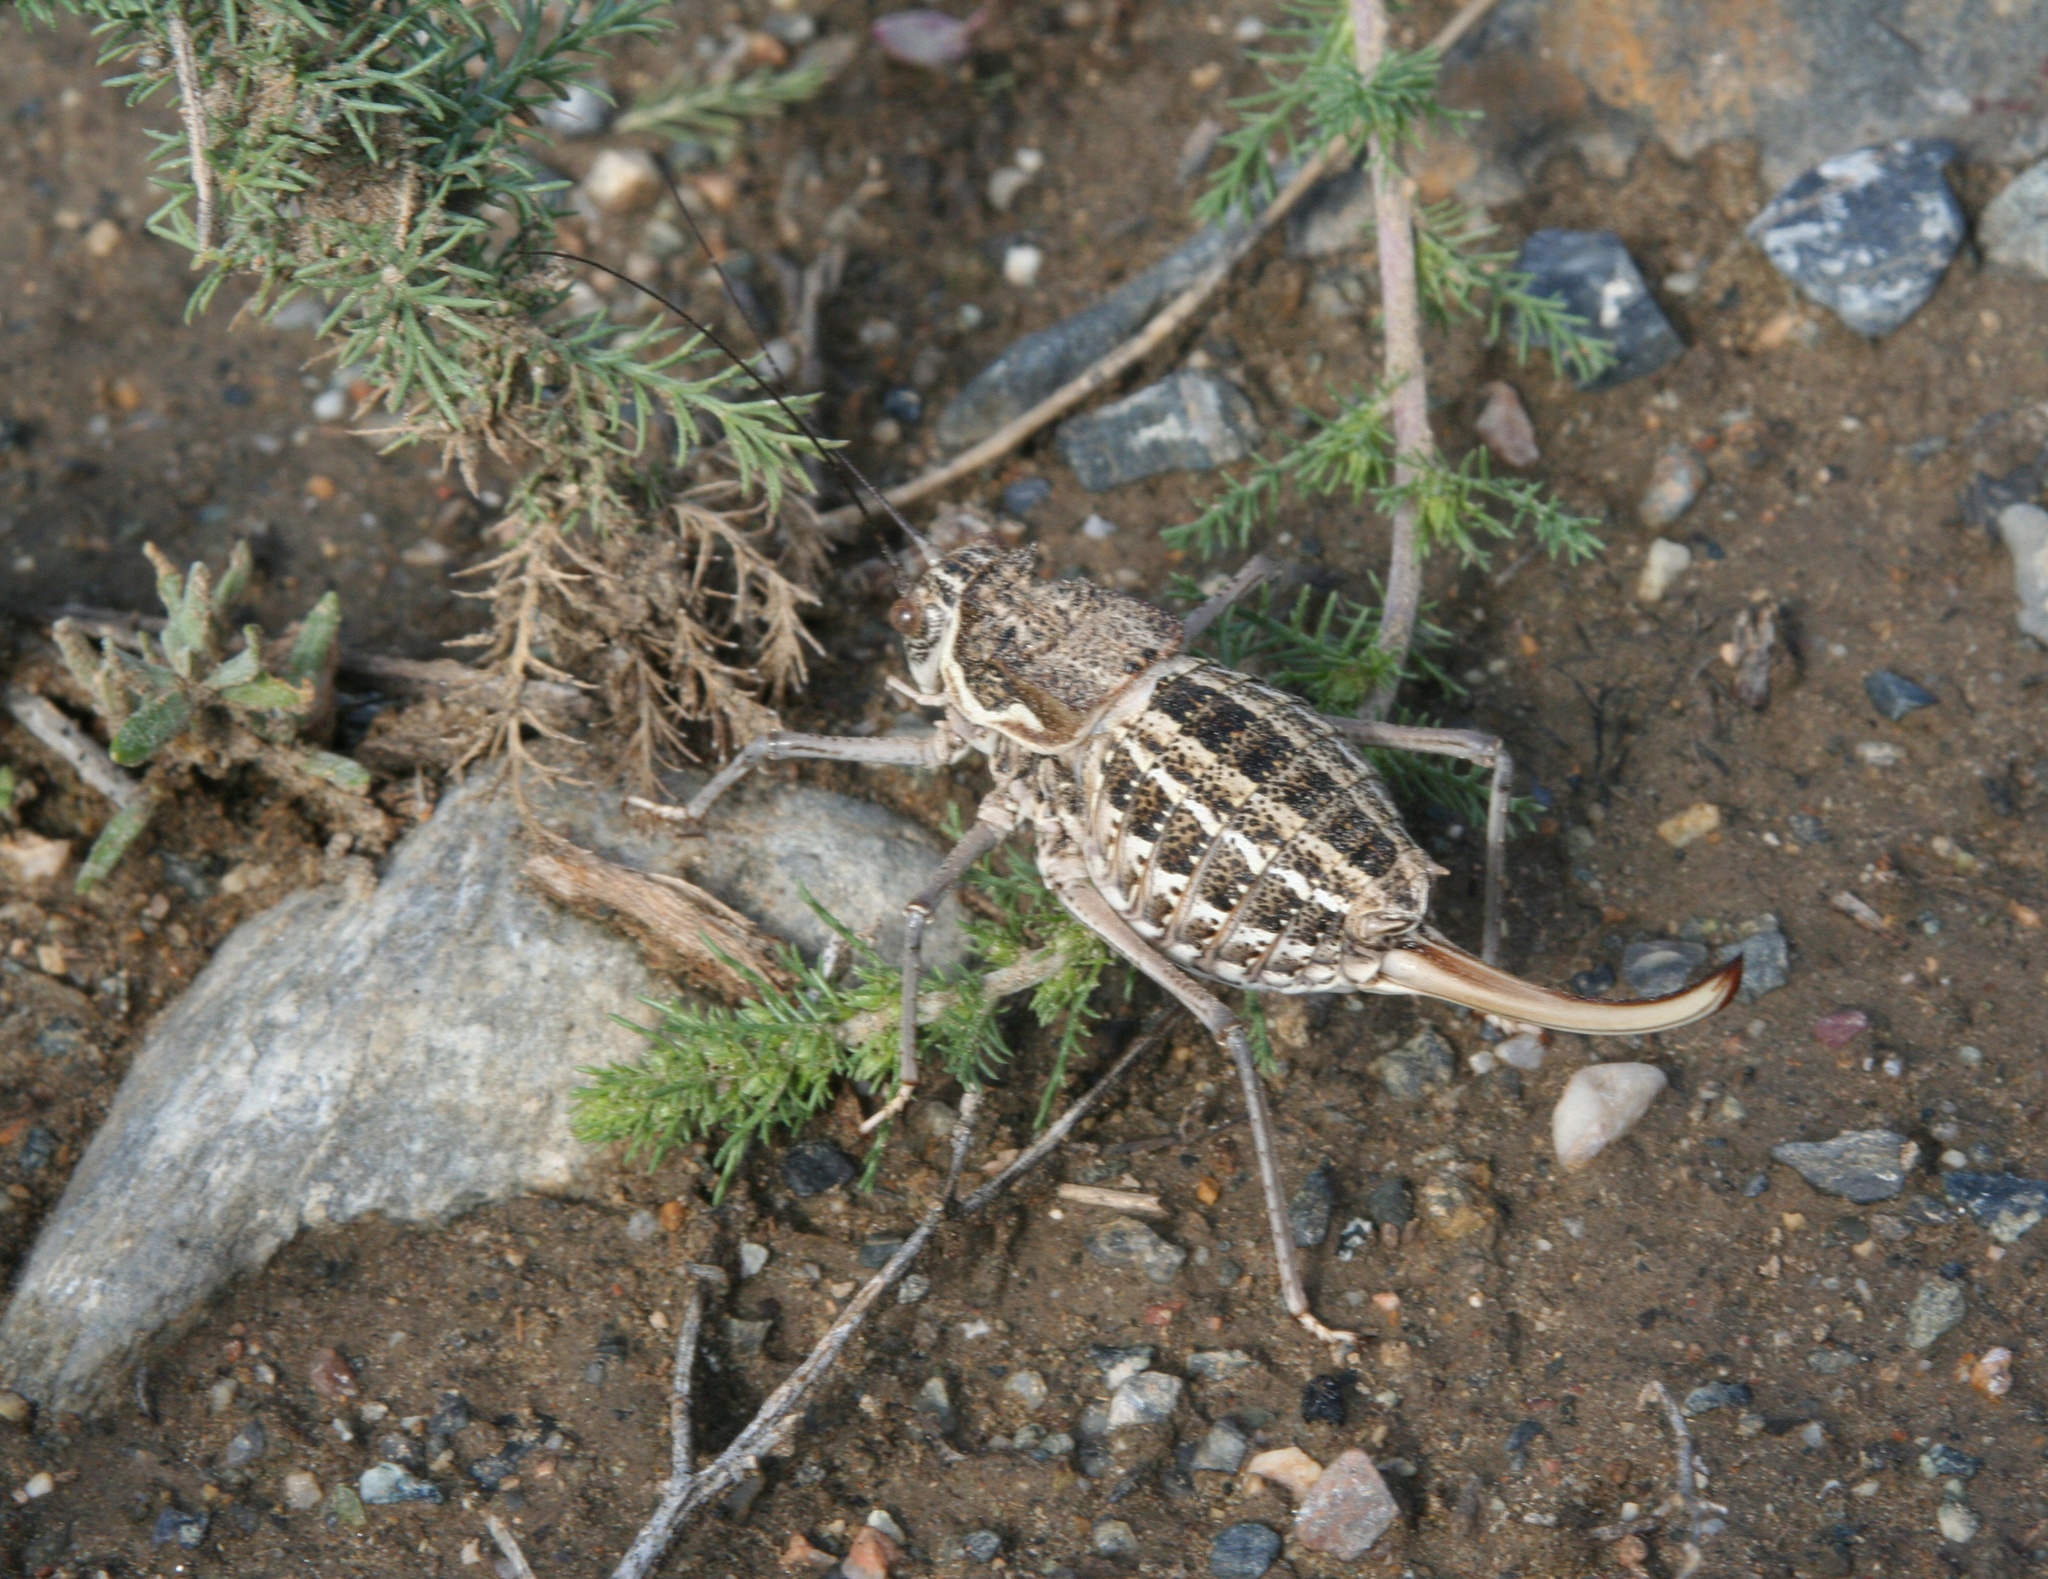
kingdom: Animalia
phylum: Arthropoda
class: Insecta
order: Orthoptera
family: Tettigoniidae
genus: Zichya
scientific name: Zichya baranovi
